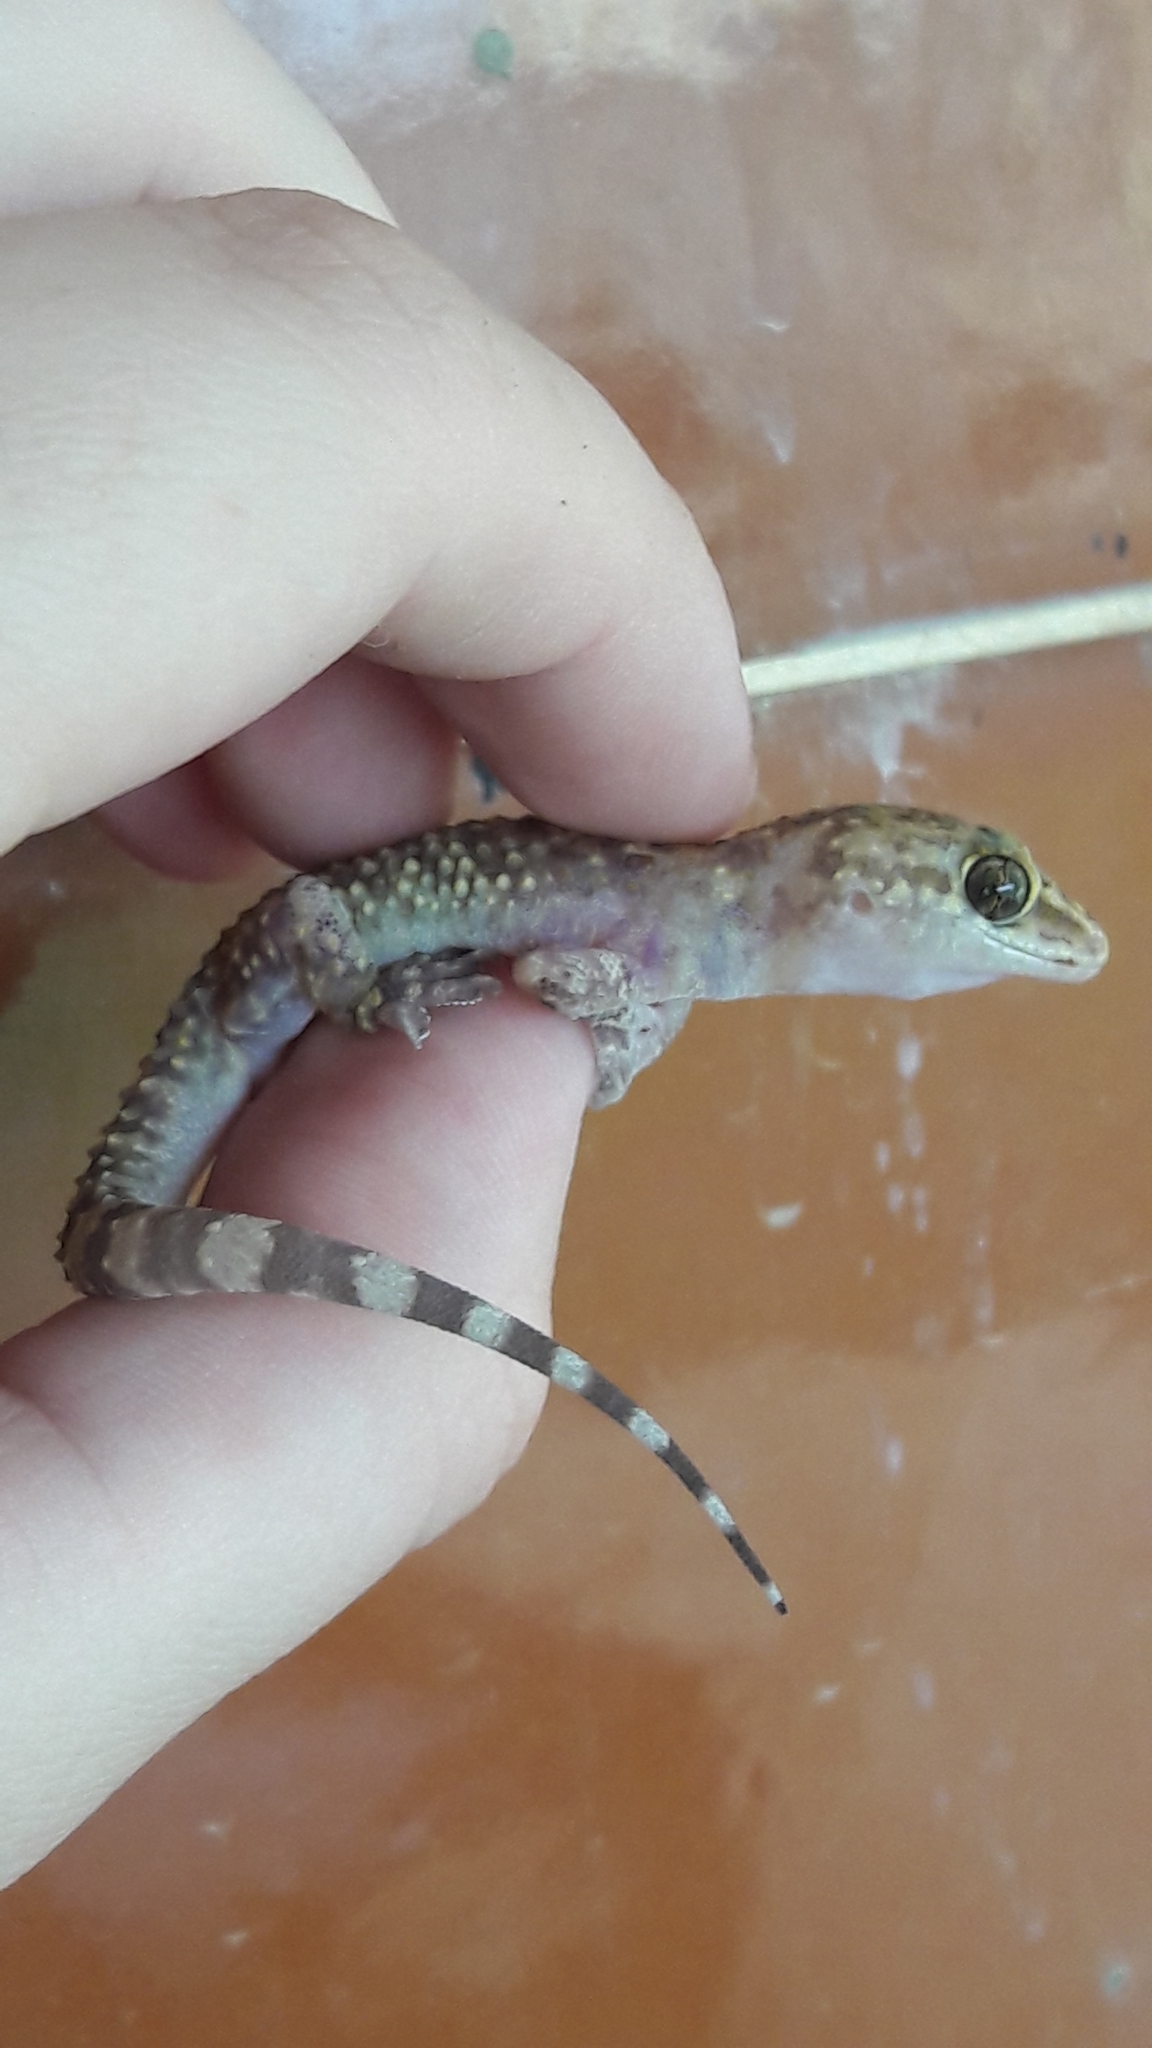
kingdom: Animalia
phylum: Chordata
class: Squamata
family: Gekkonidae
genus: Hemidactylus
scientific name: Hemidactylus turcicus
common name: Turkish gecko
